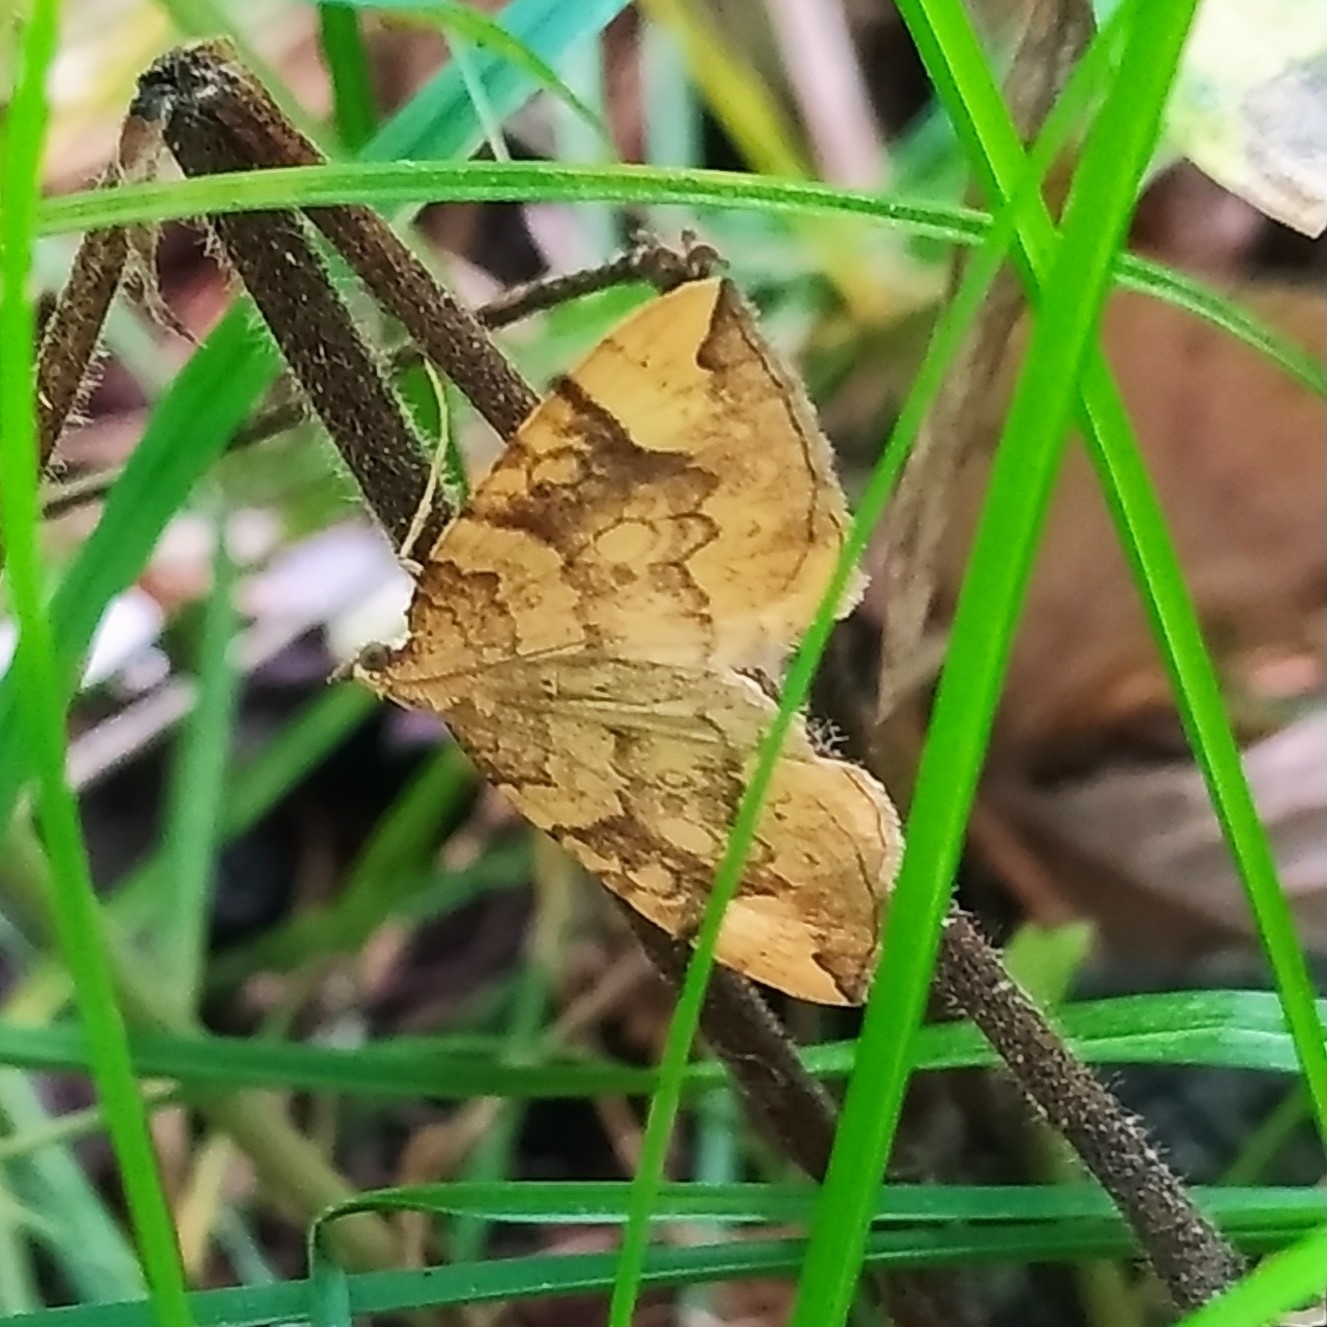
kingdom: Animalia
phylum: Arthropoda
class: Insecta
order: Lepidoptera
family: Geometridae
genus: Eulithis
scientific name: Eulithis populata
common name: Northern spinach
